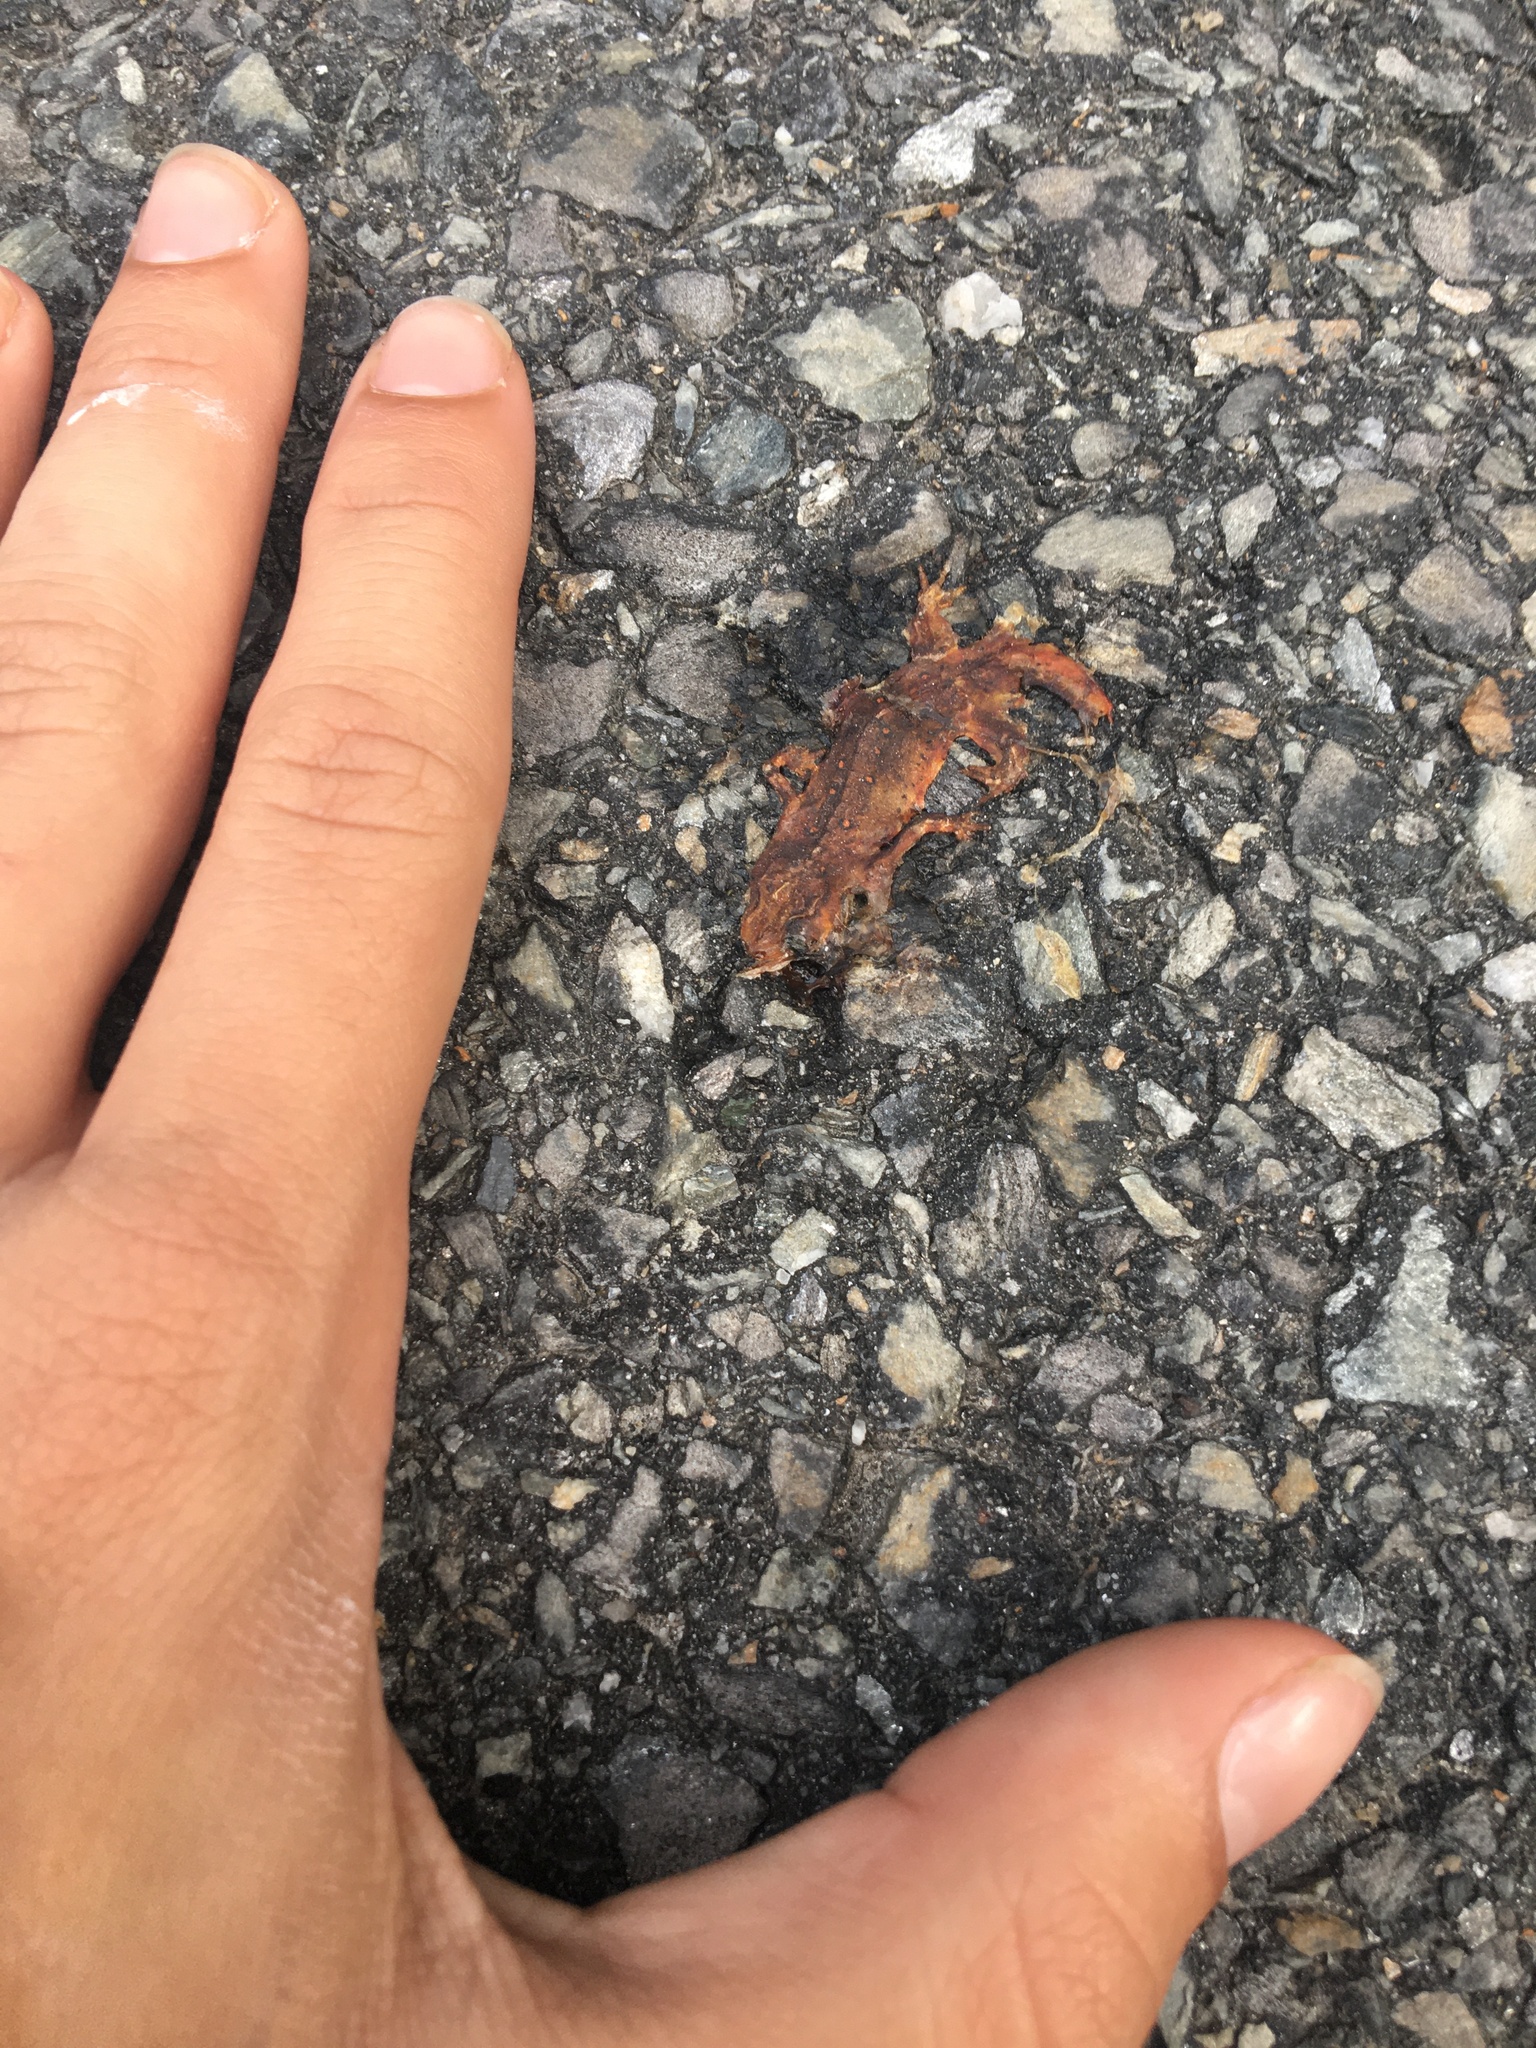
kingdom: Animalia
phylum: Chordata
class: Amphibia
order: Caudata
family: Salamandridae
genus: Notophthalmus
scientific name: Notophthalmus viridescens
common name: Eastern newt
